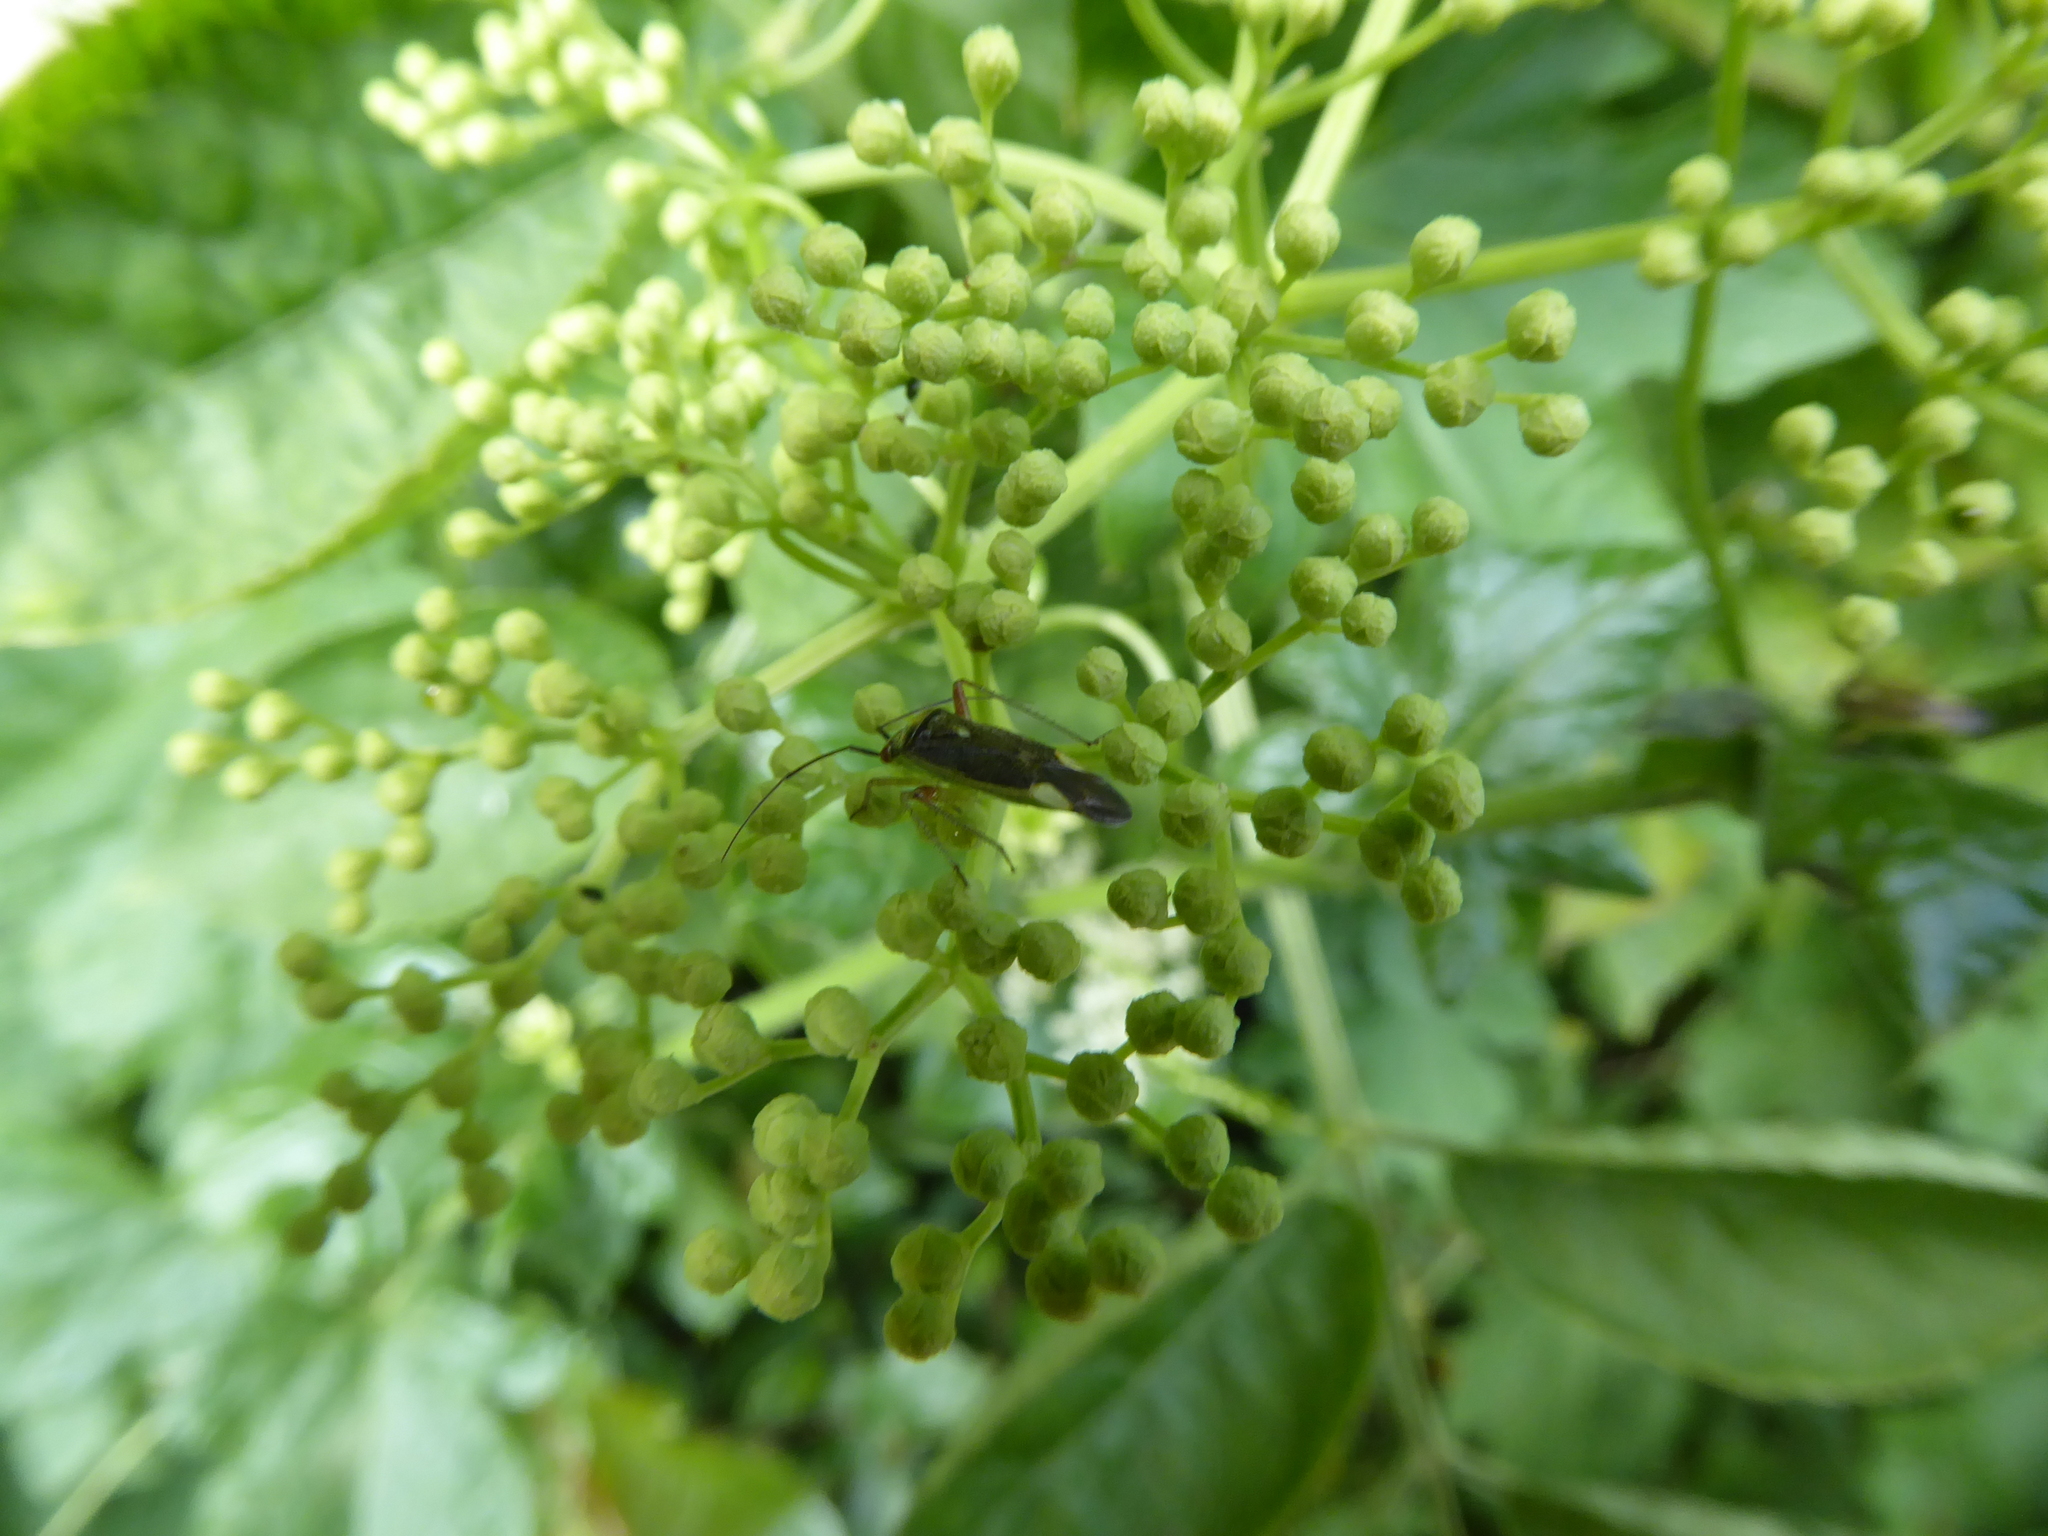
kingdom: Animalia
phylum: Arthropoda
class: Insecta
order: Hemiptera
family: Miridae
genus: Closterotomus
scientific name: Closterotomus trivialis
